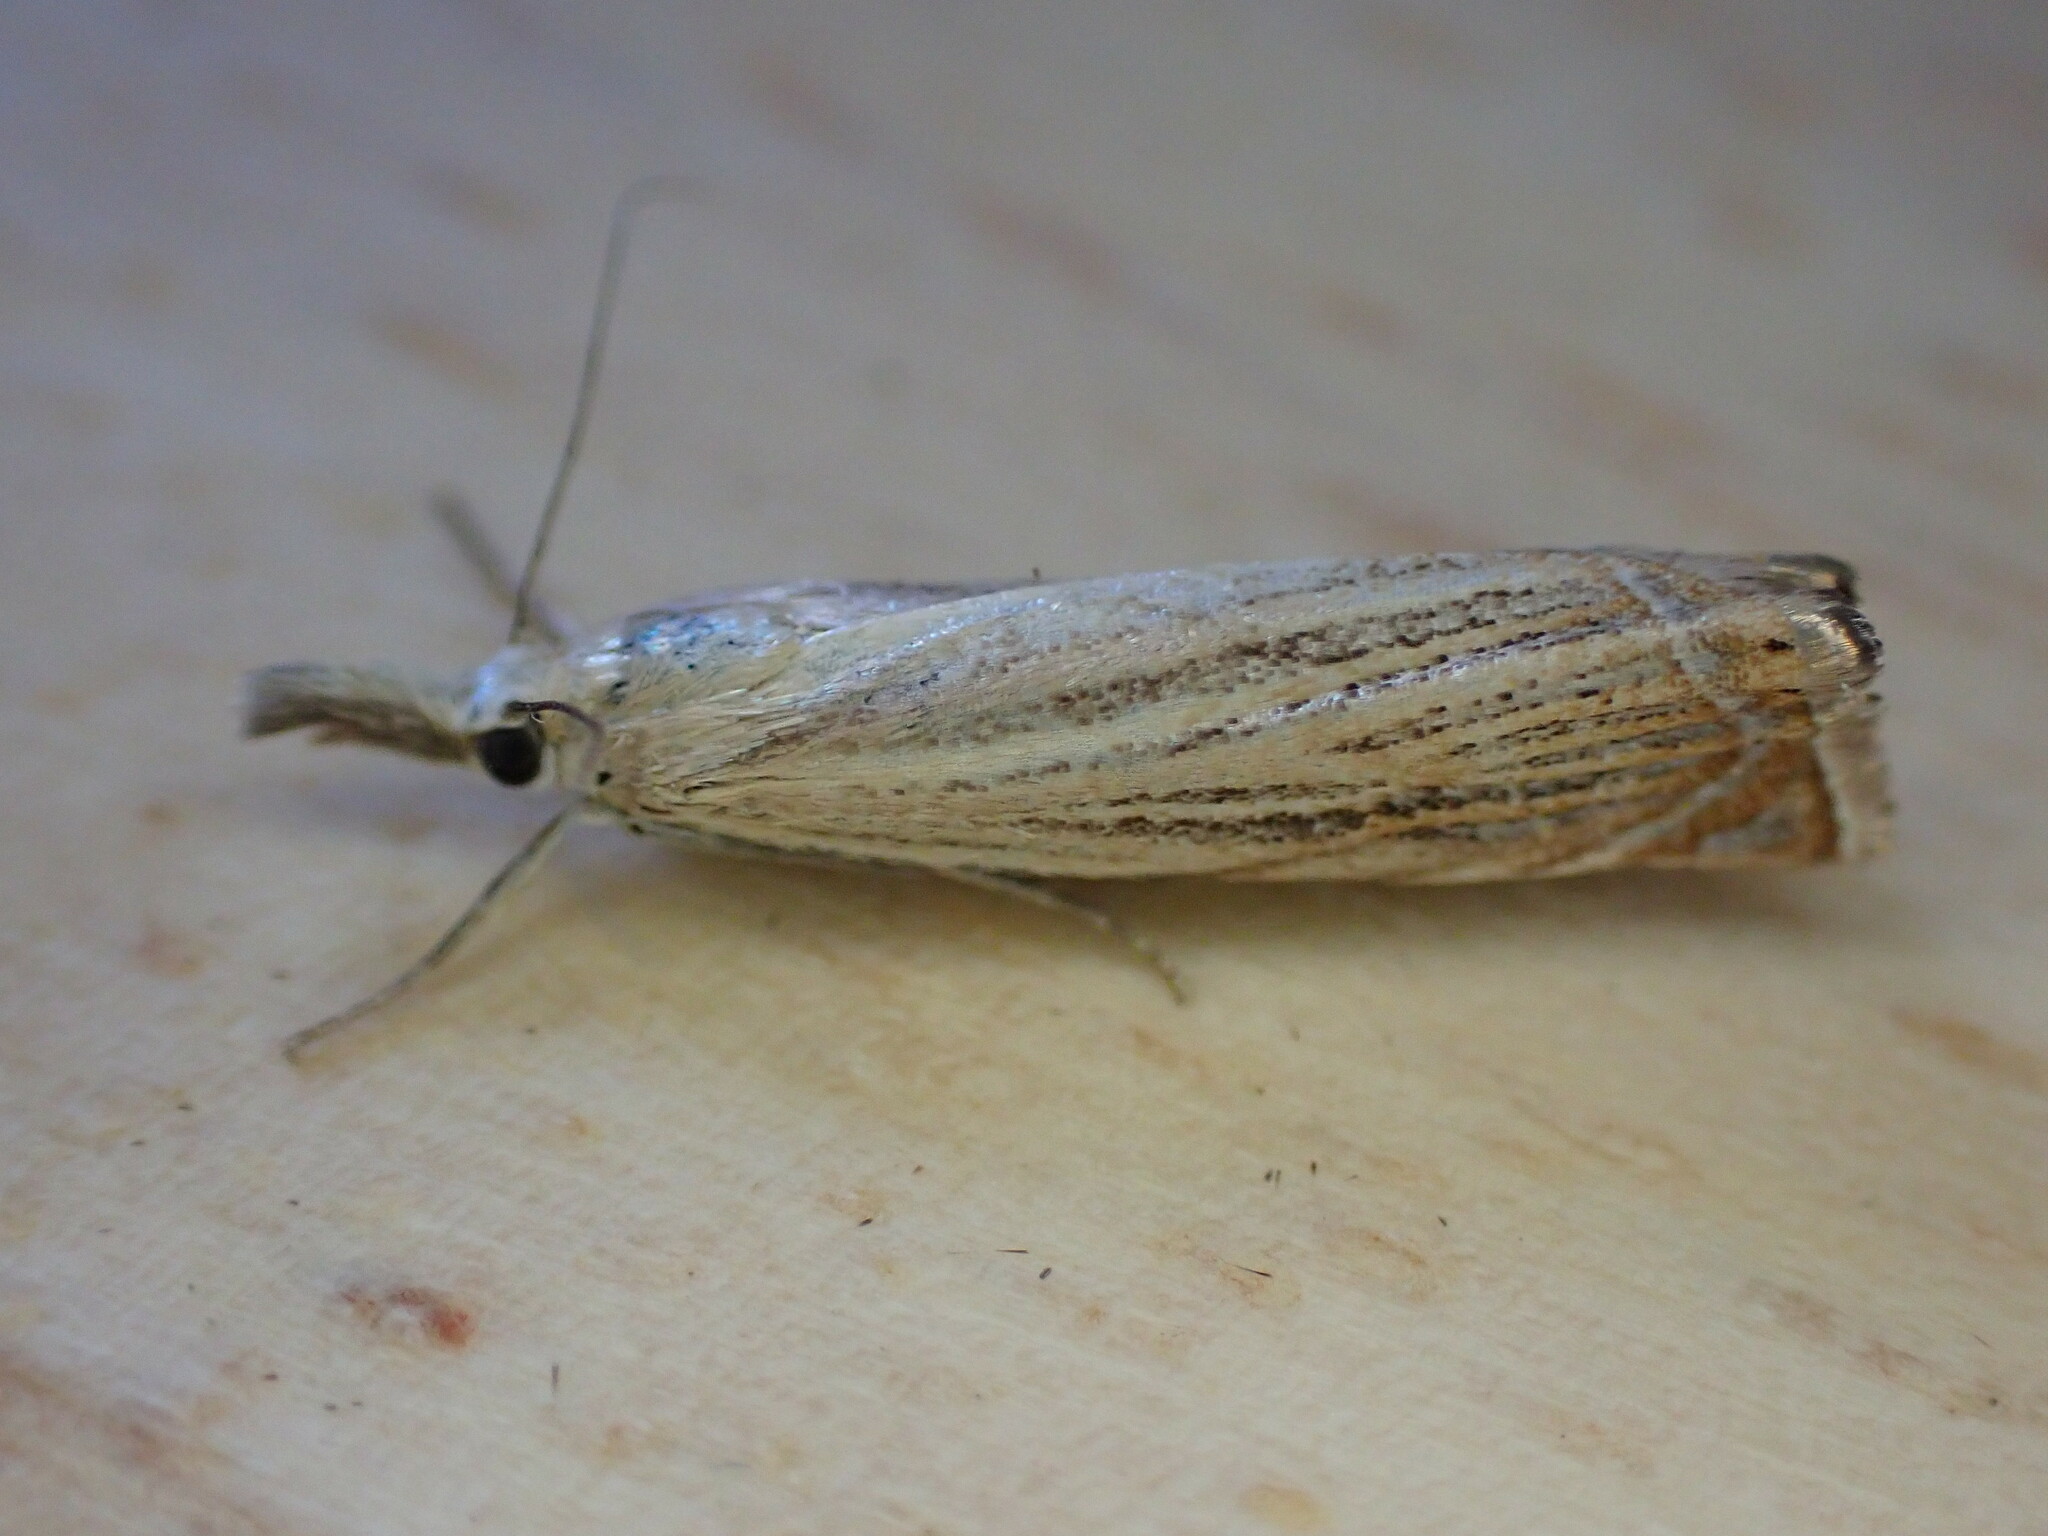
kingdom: Animalia
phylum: Arthropoda
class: Insecta
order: Lepidoptera
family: Crambidae
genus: Chrysoteuchia
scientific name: Chrysoteuchia culmella
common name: Garden grass-veneer
